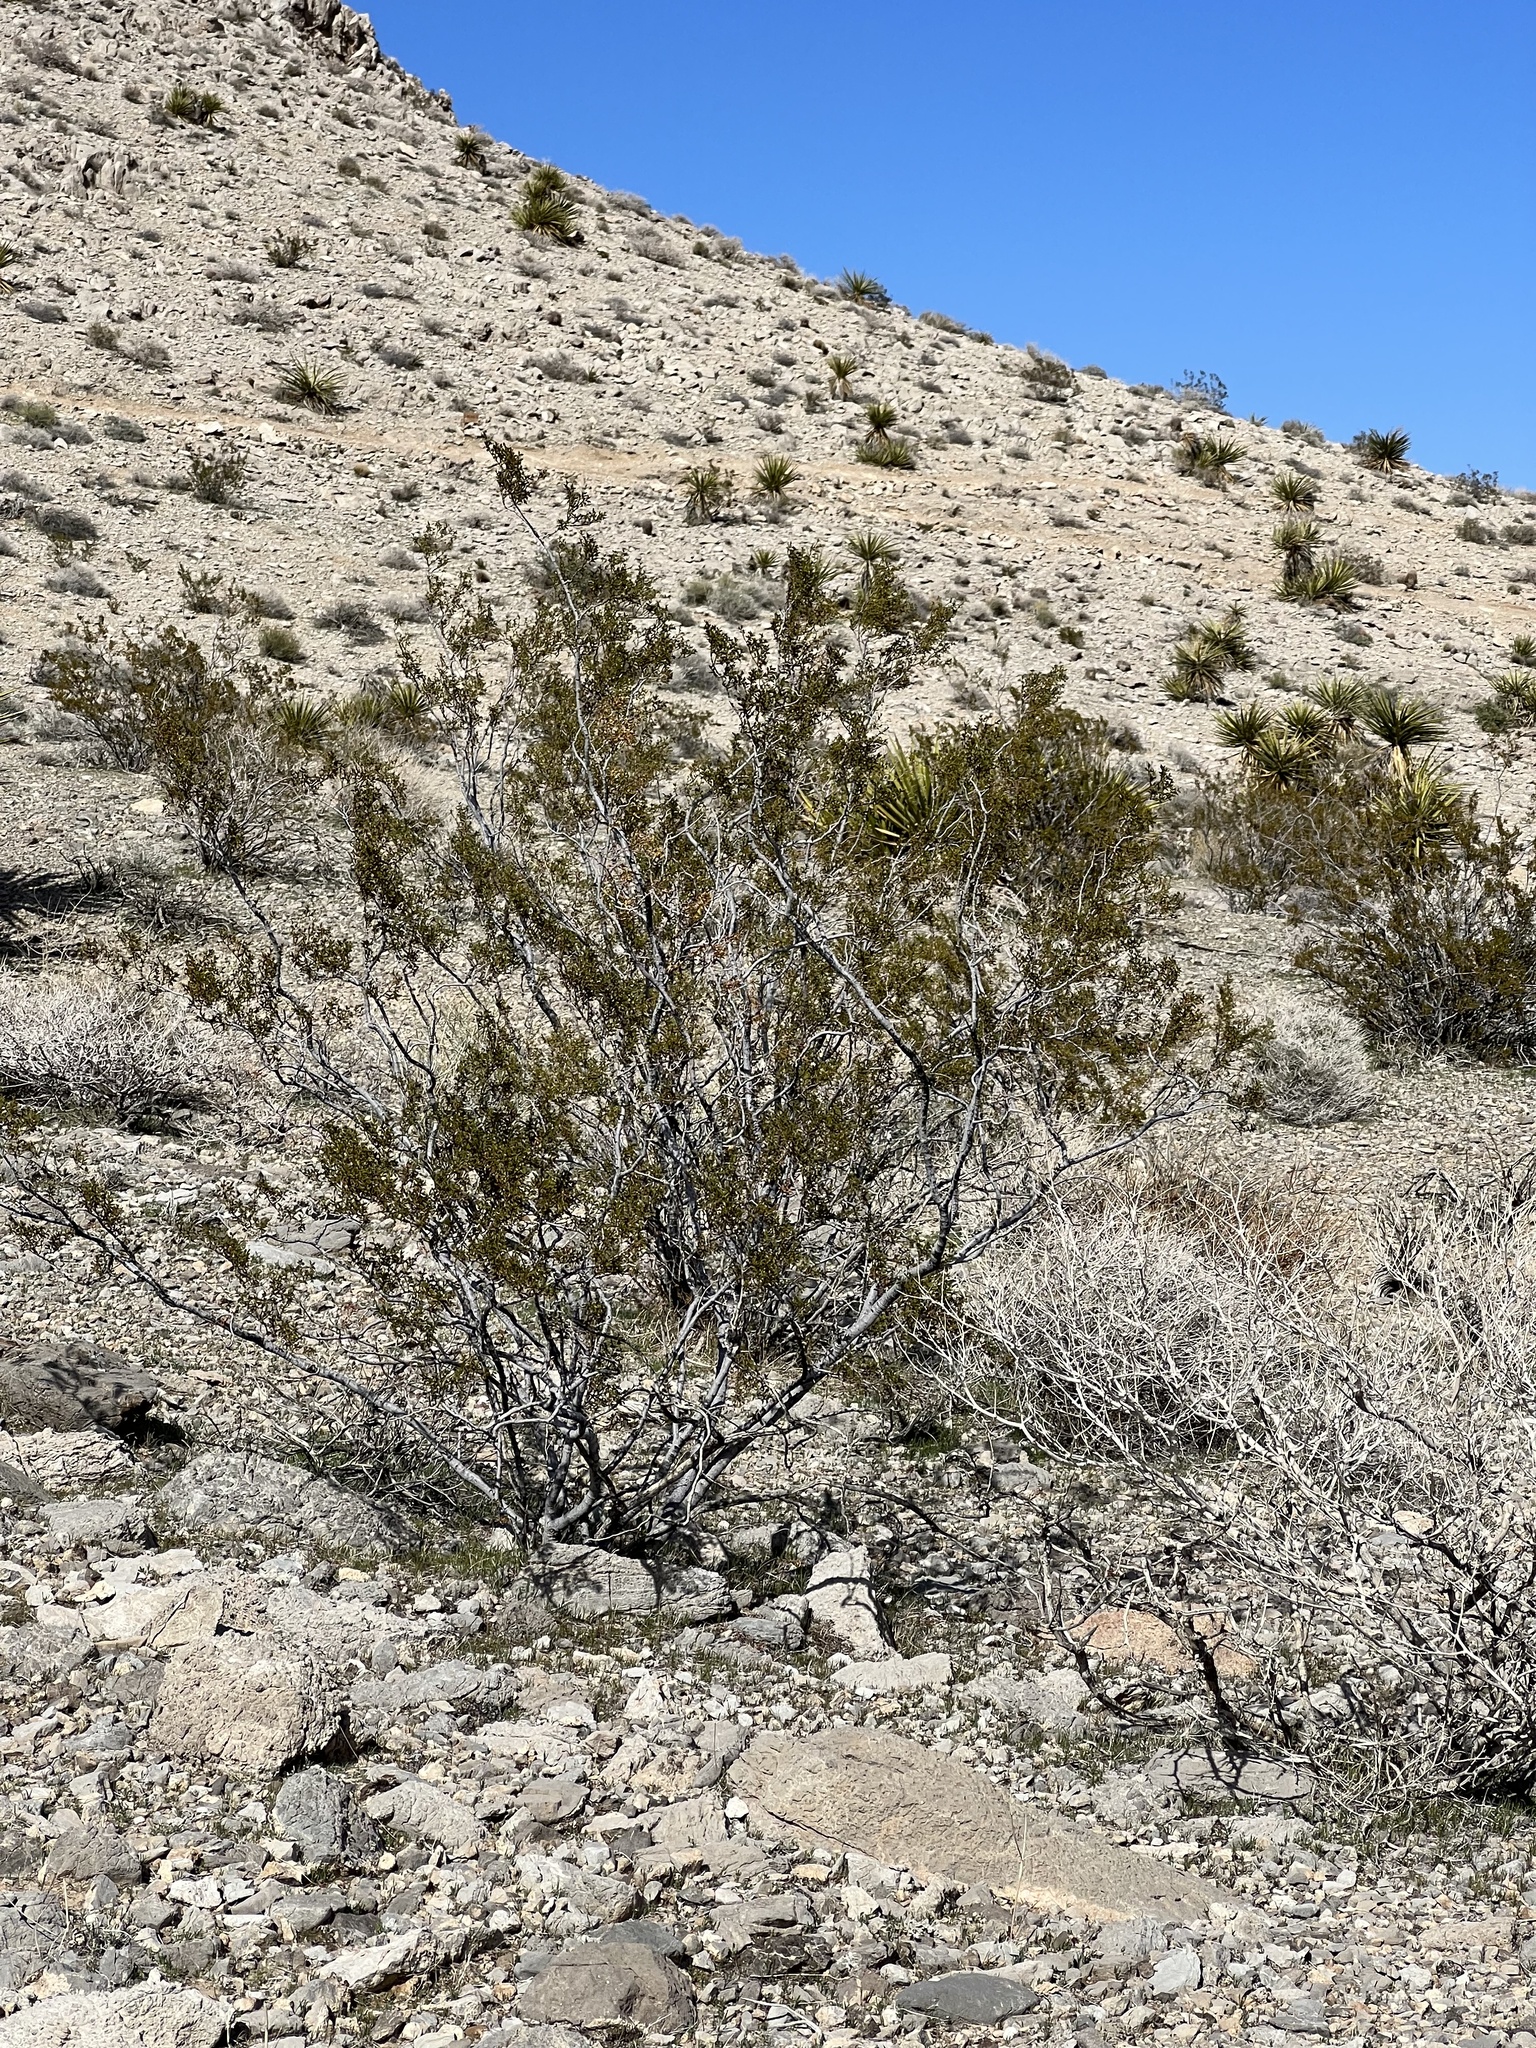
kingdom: Plantae
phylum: Tracheophyta
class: Magnoliopsida
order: Zygophyllales
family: Zygophyllaceae
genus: Larrea
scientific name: Larrea tridentata
